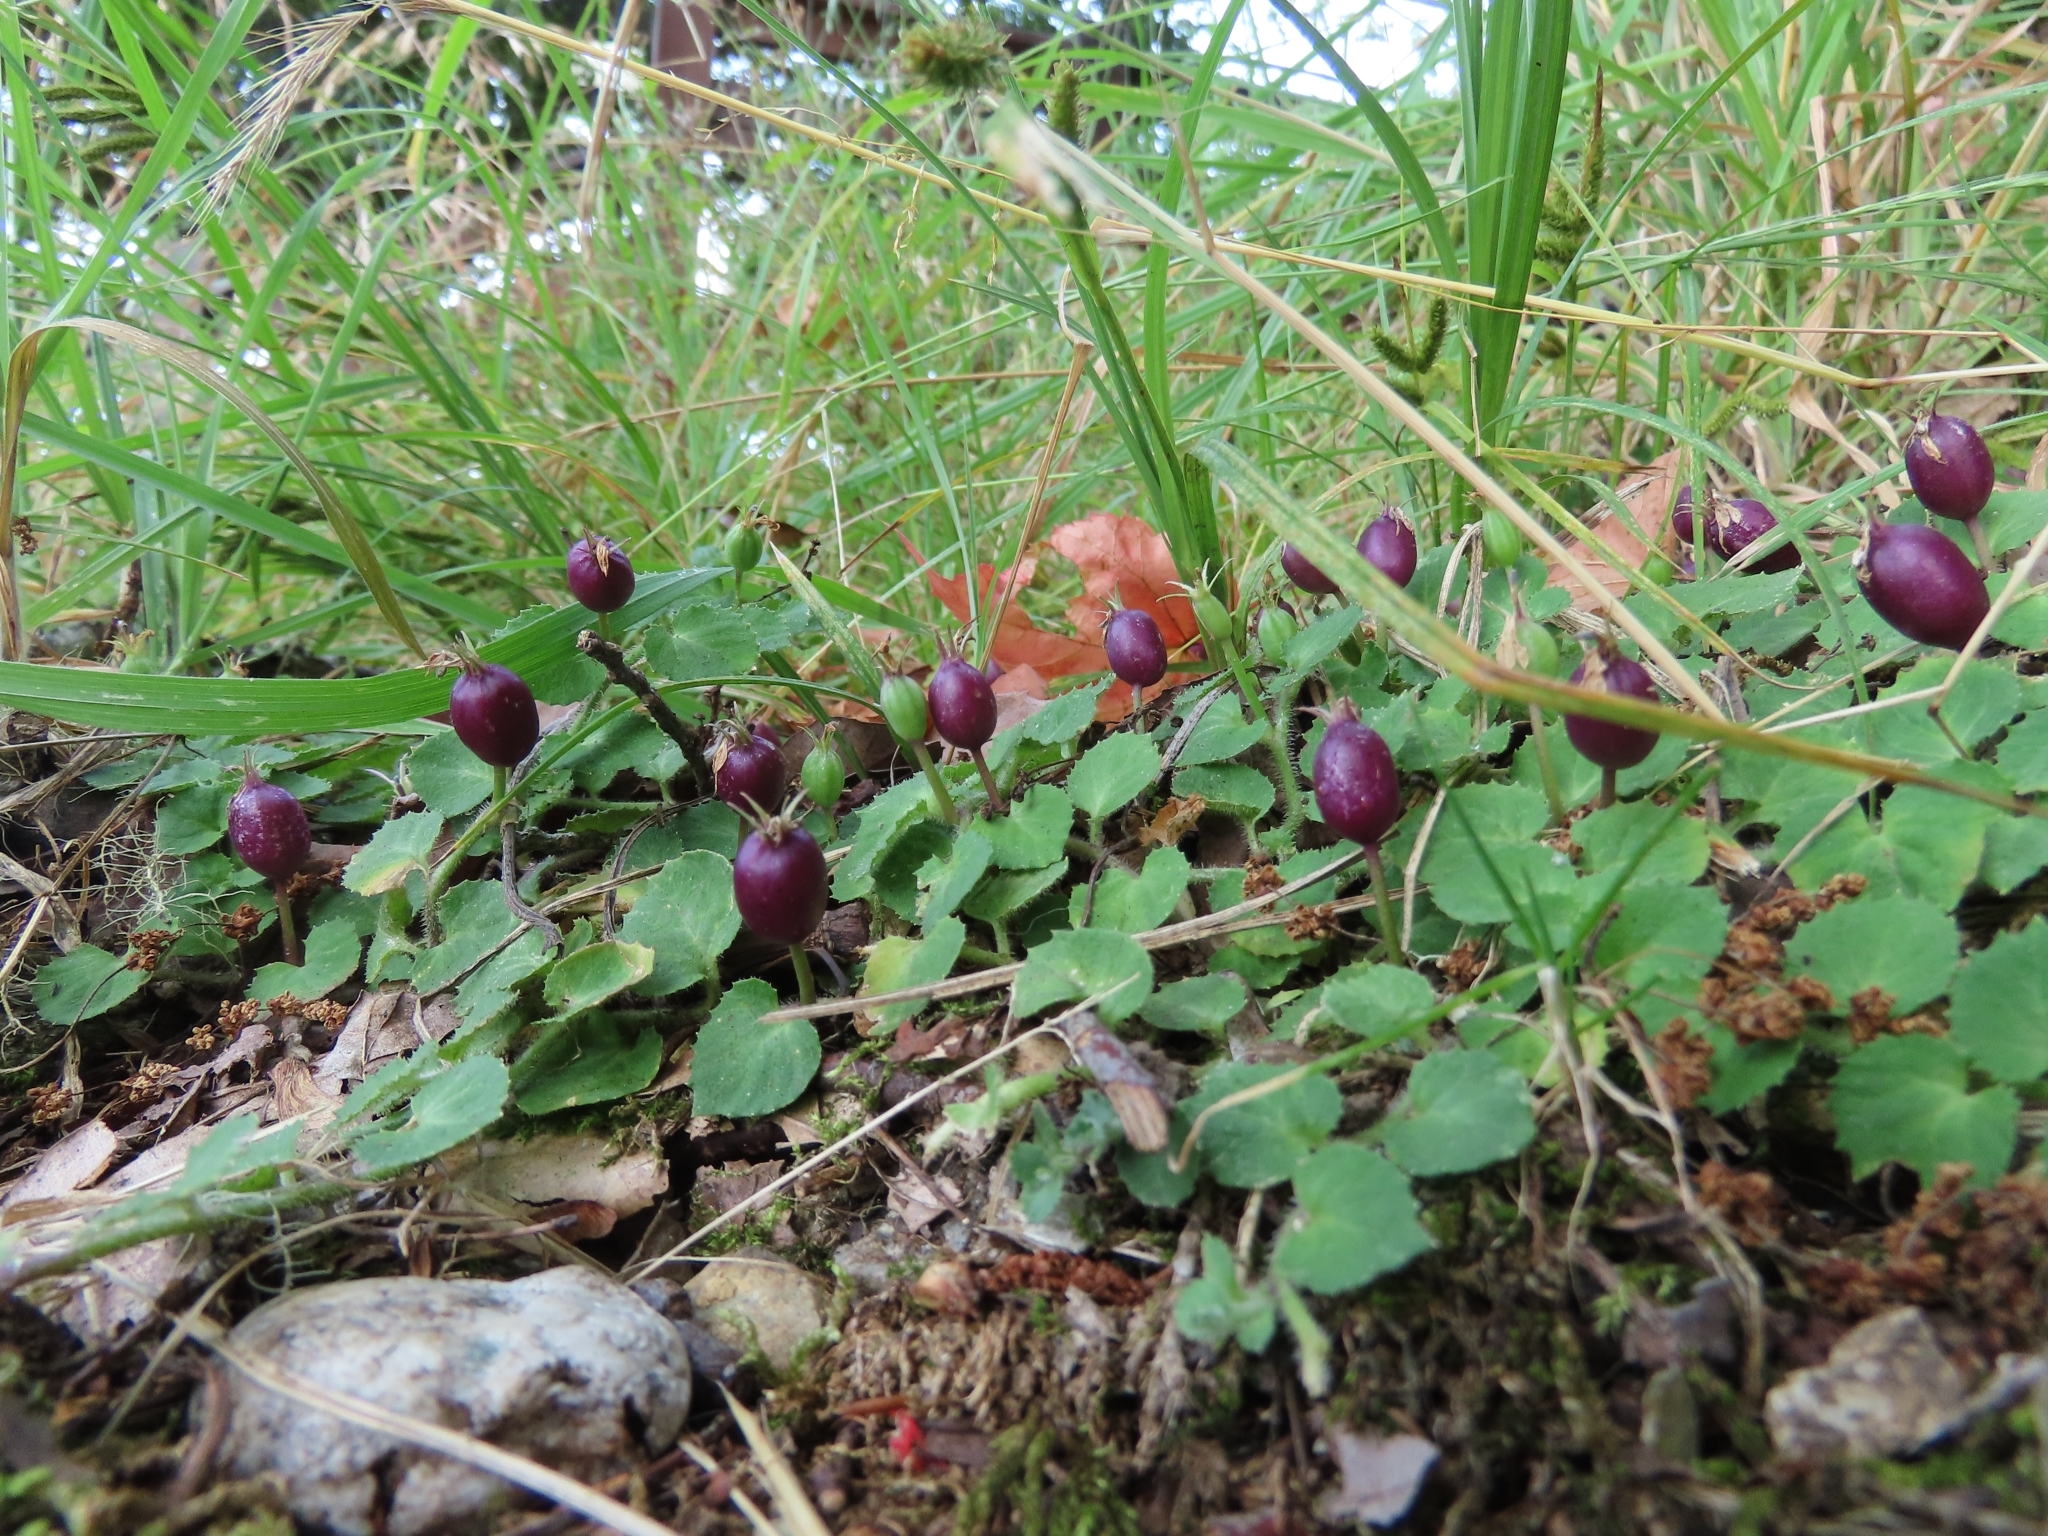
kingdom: Plantae
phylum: Tracheophyta
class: Magnoliopsida
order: Asterales
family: Campanulaceae
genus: Lobelia
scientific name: Lobelia nummularia
